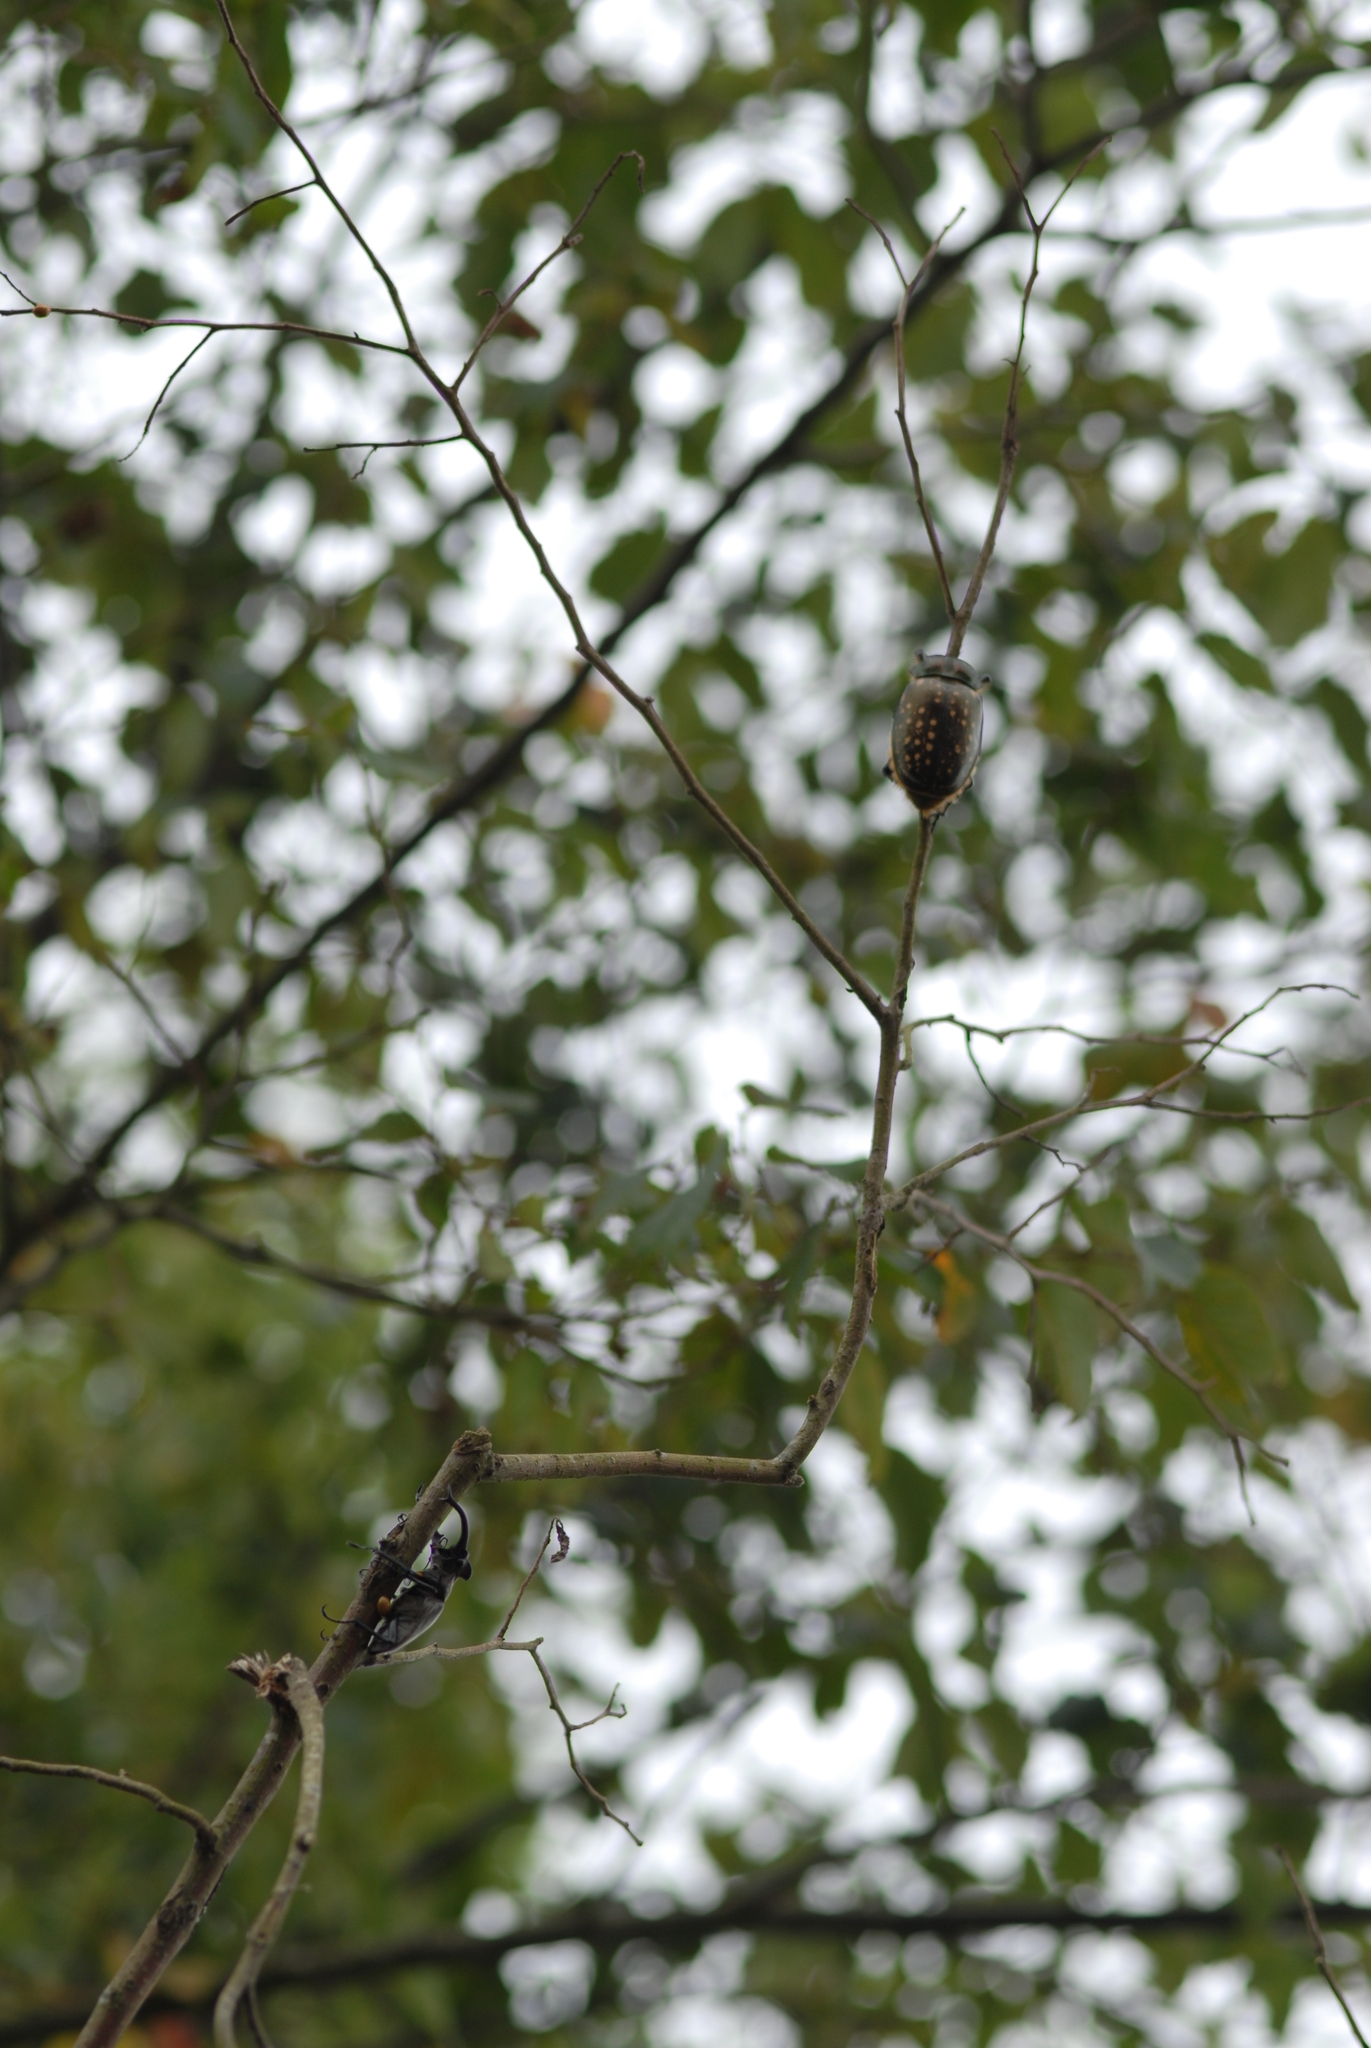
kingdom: Animalia
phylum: Arthropoda
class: Insecta
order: Coleoptera
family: Scarabaeidae
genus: Cheirotonus
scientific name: Cheirotonus formosanus
